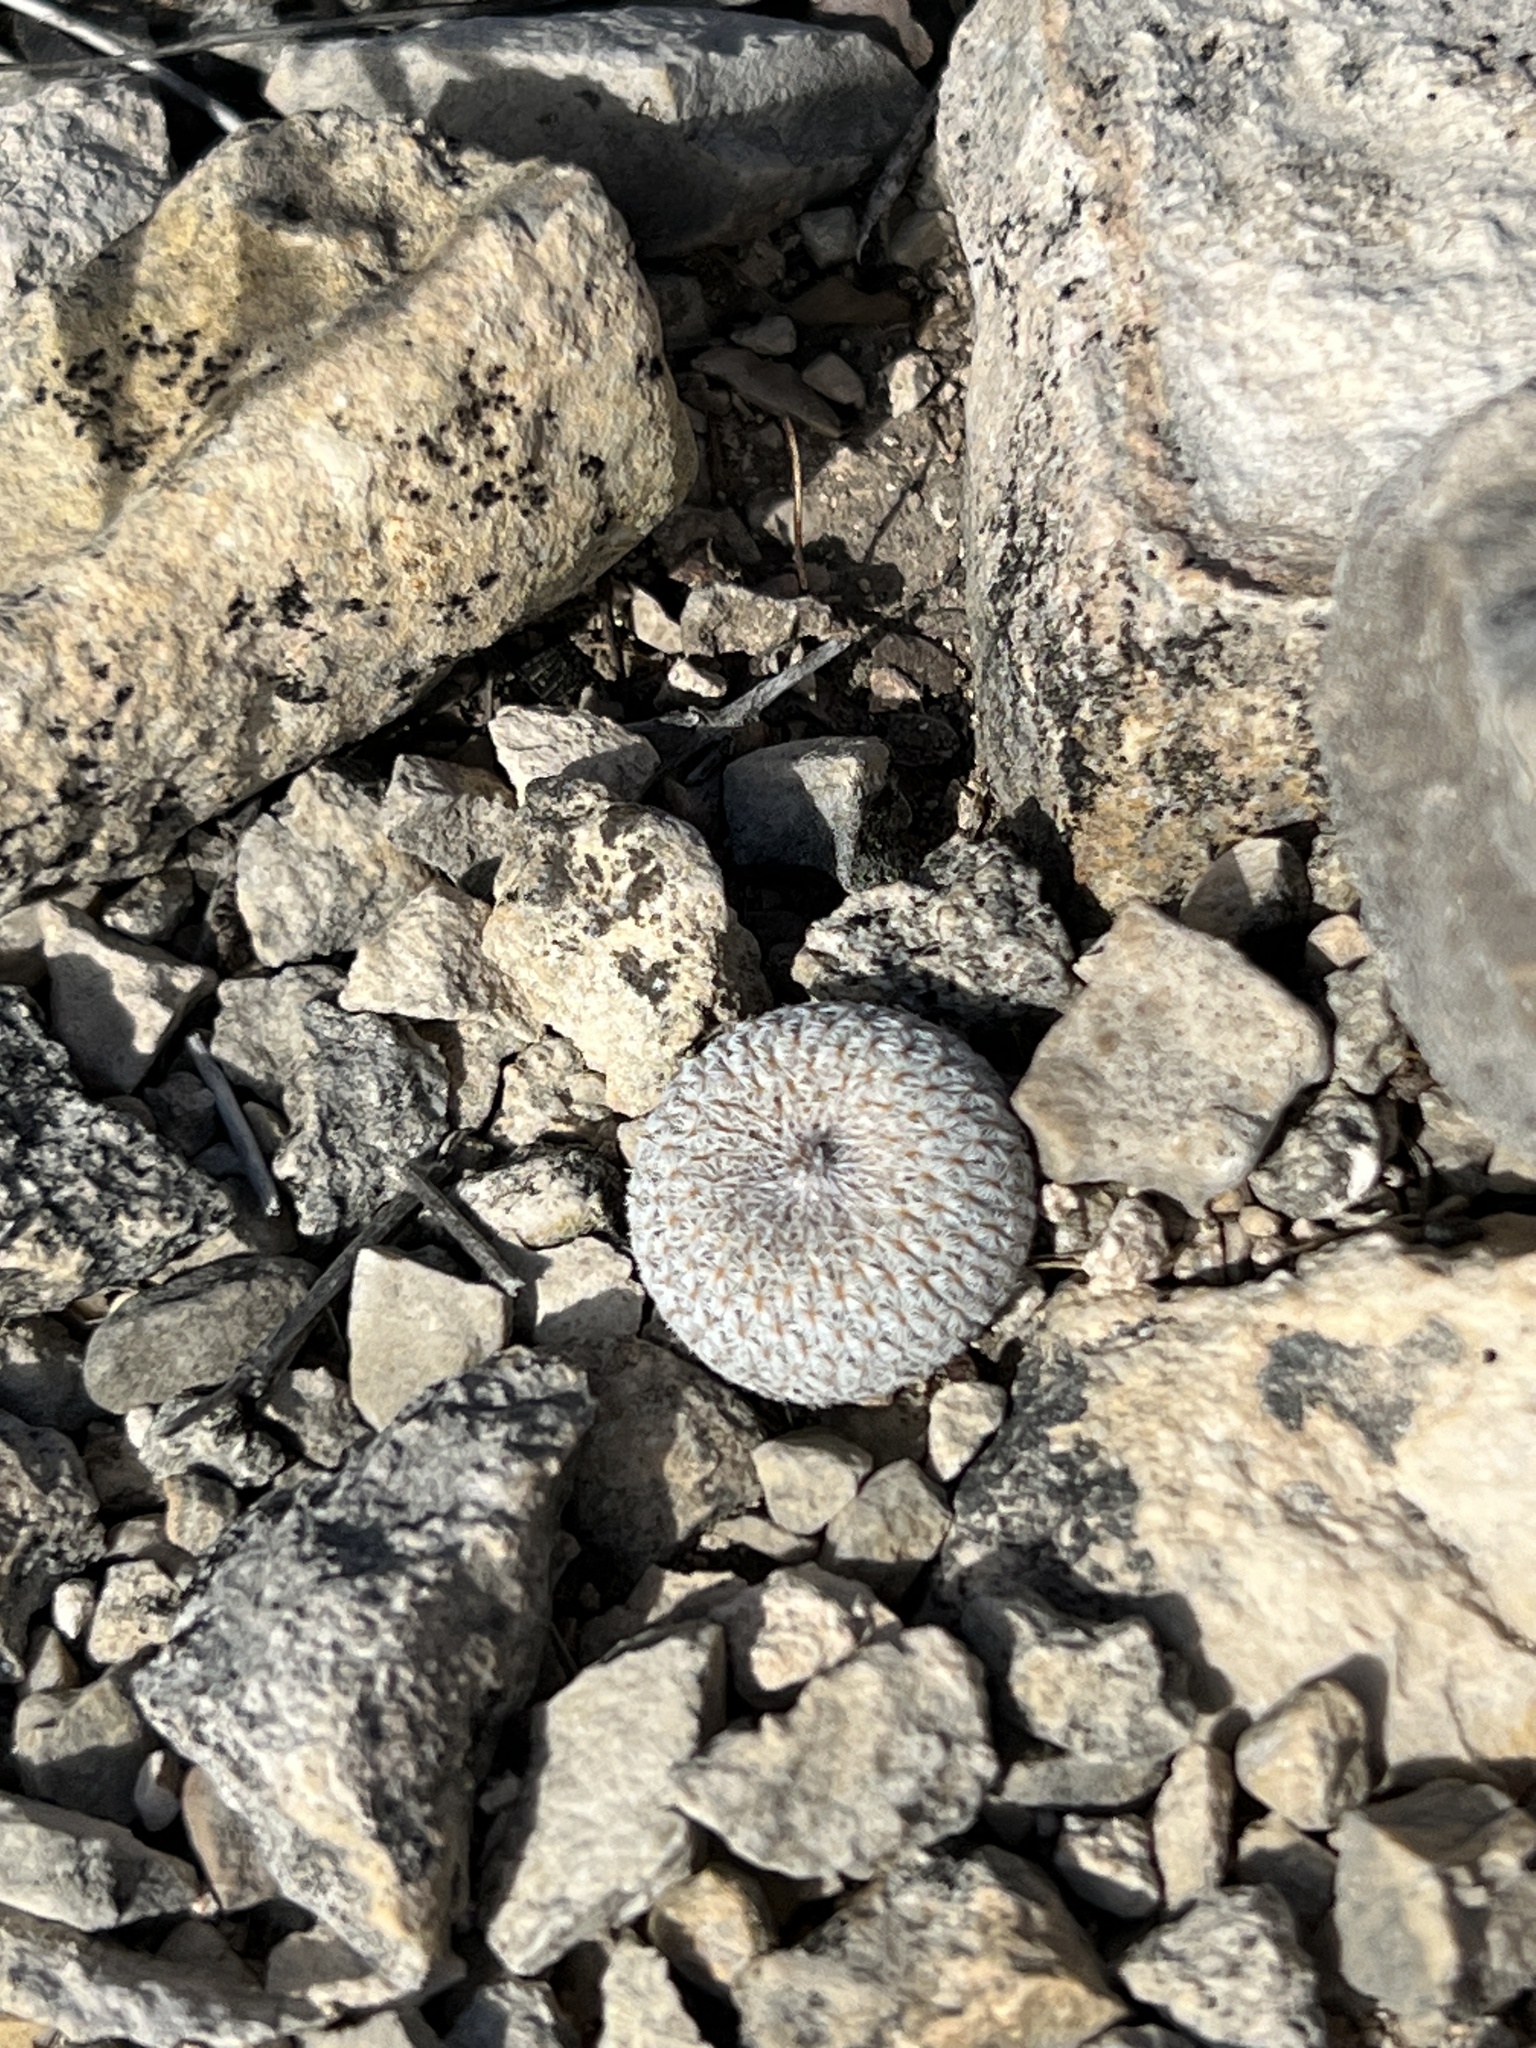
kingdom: Plantae
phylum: Tracheophyta
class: Magnoliopsida
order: Caryophyllales
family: Cactaceae
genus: Epithelantha
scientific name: Epithelantha micromeris
